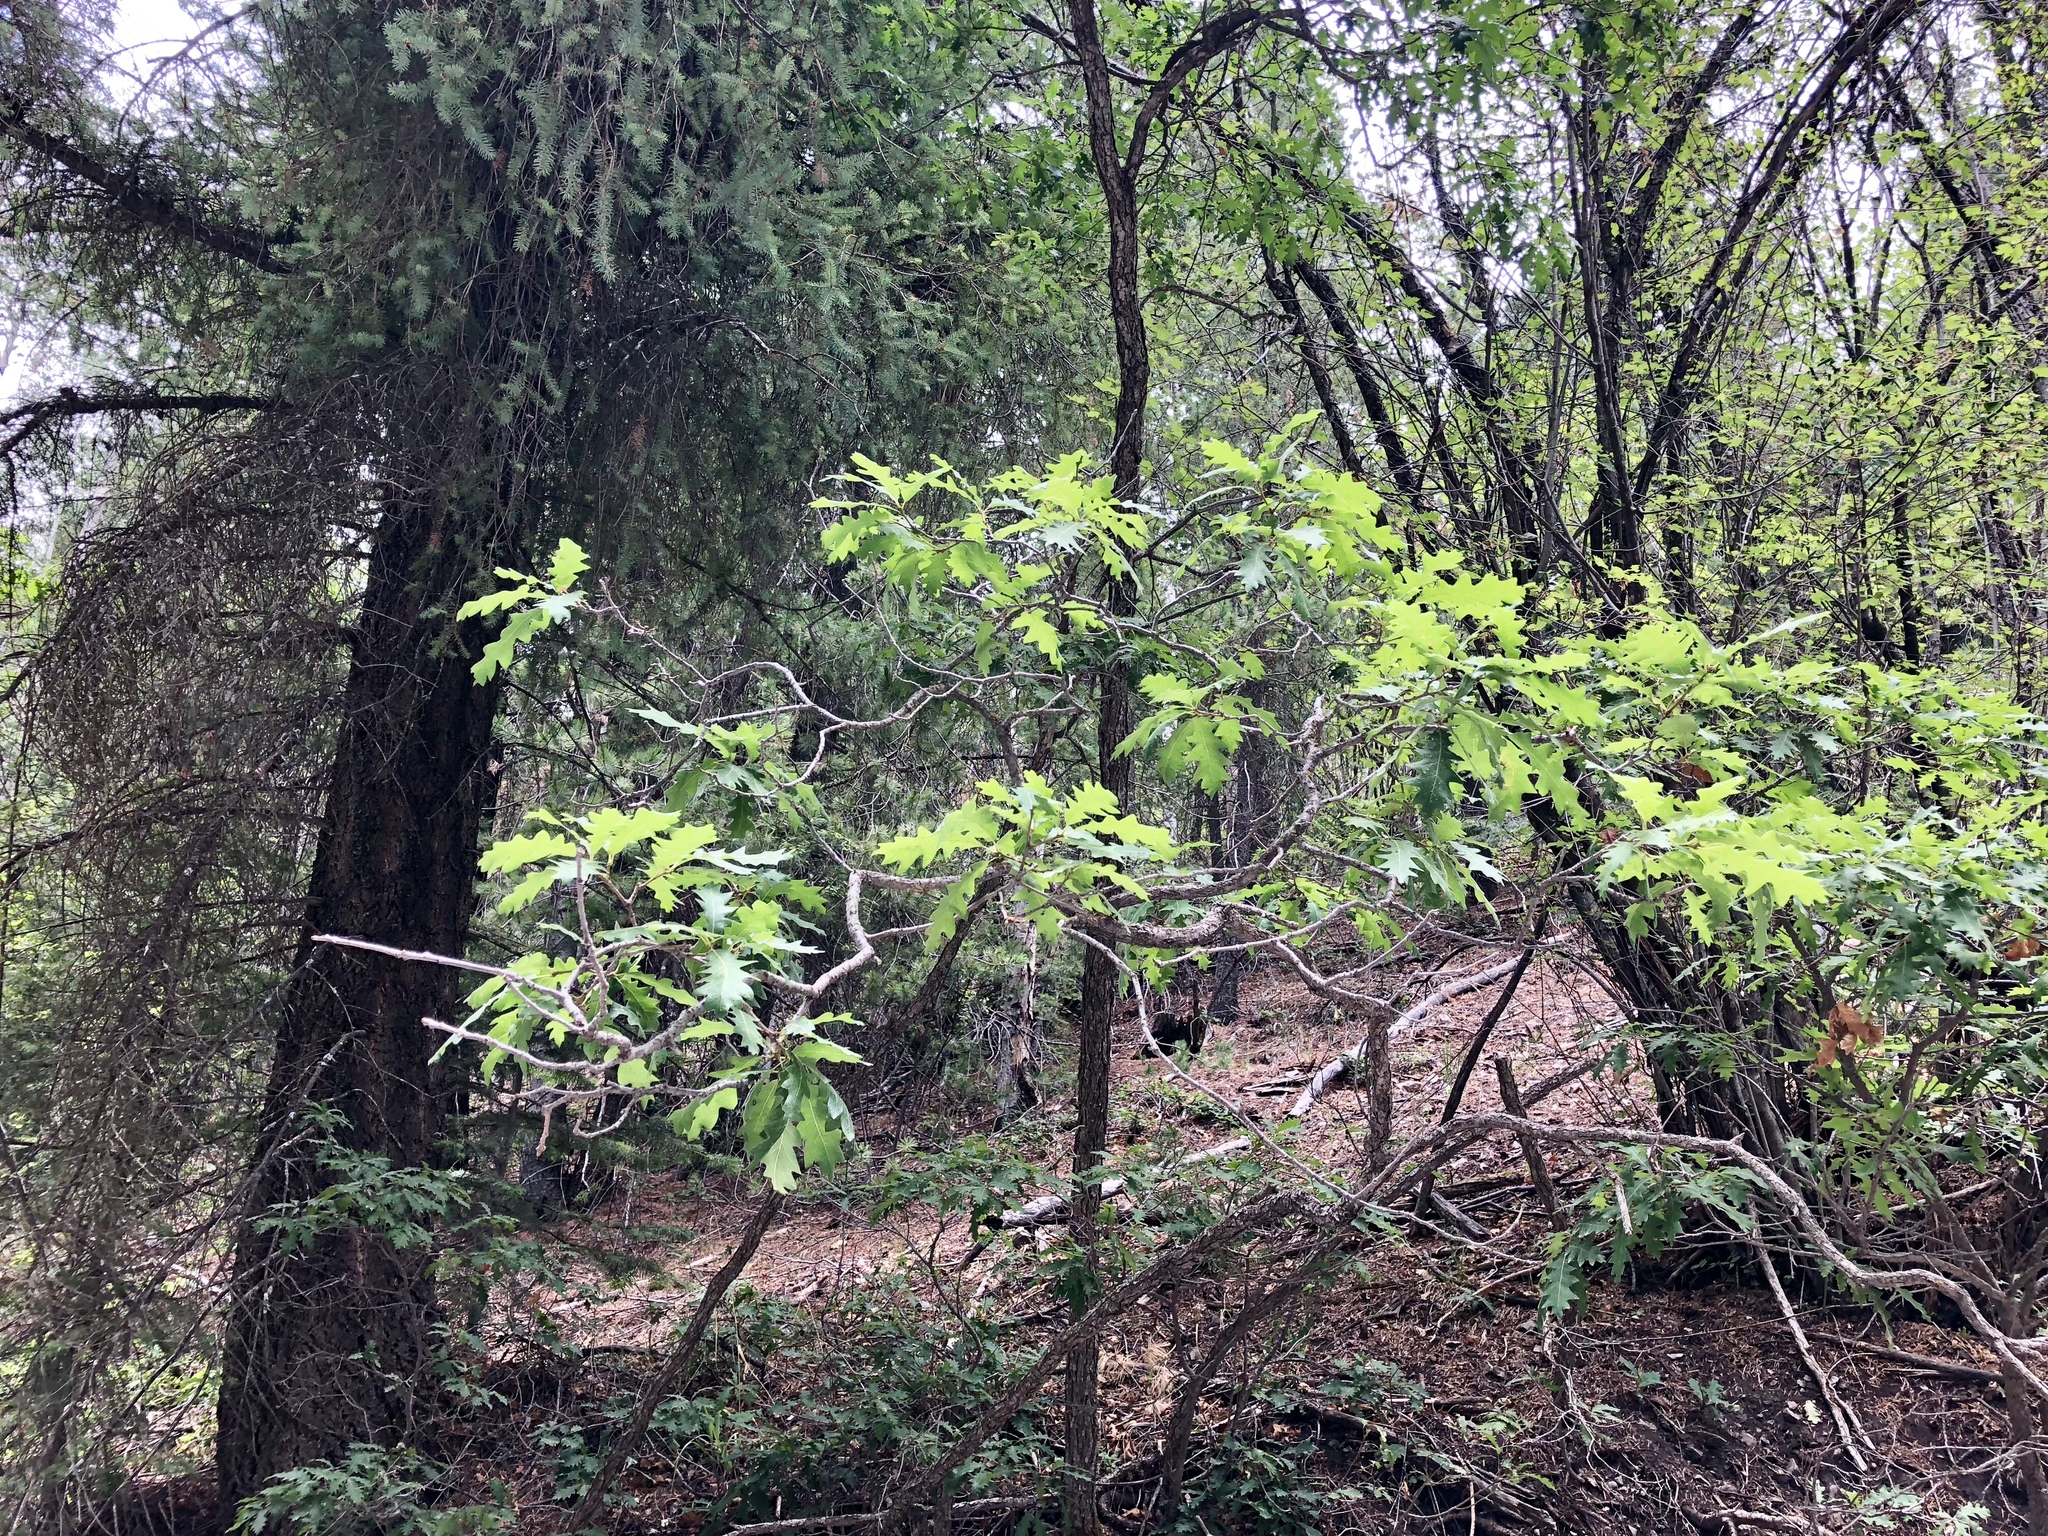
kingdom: Plantae
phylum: Tracheophyta
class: Magnoliopsida
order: Fagales
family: Fagaceae
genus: Quercus
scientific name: Quercus gambelii
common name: Gambel oak
